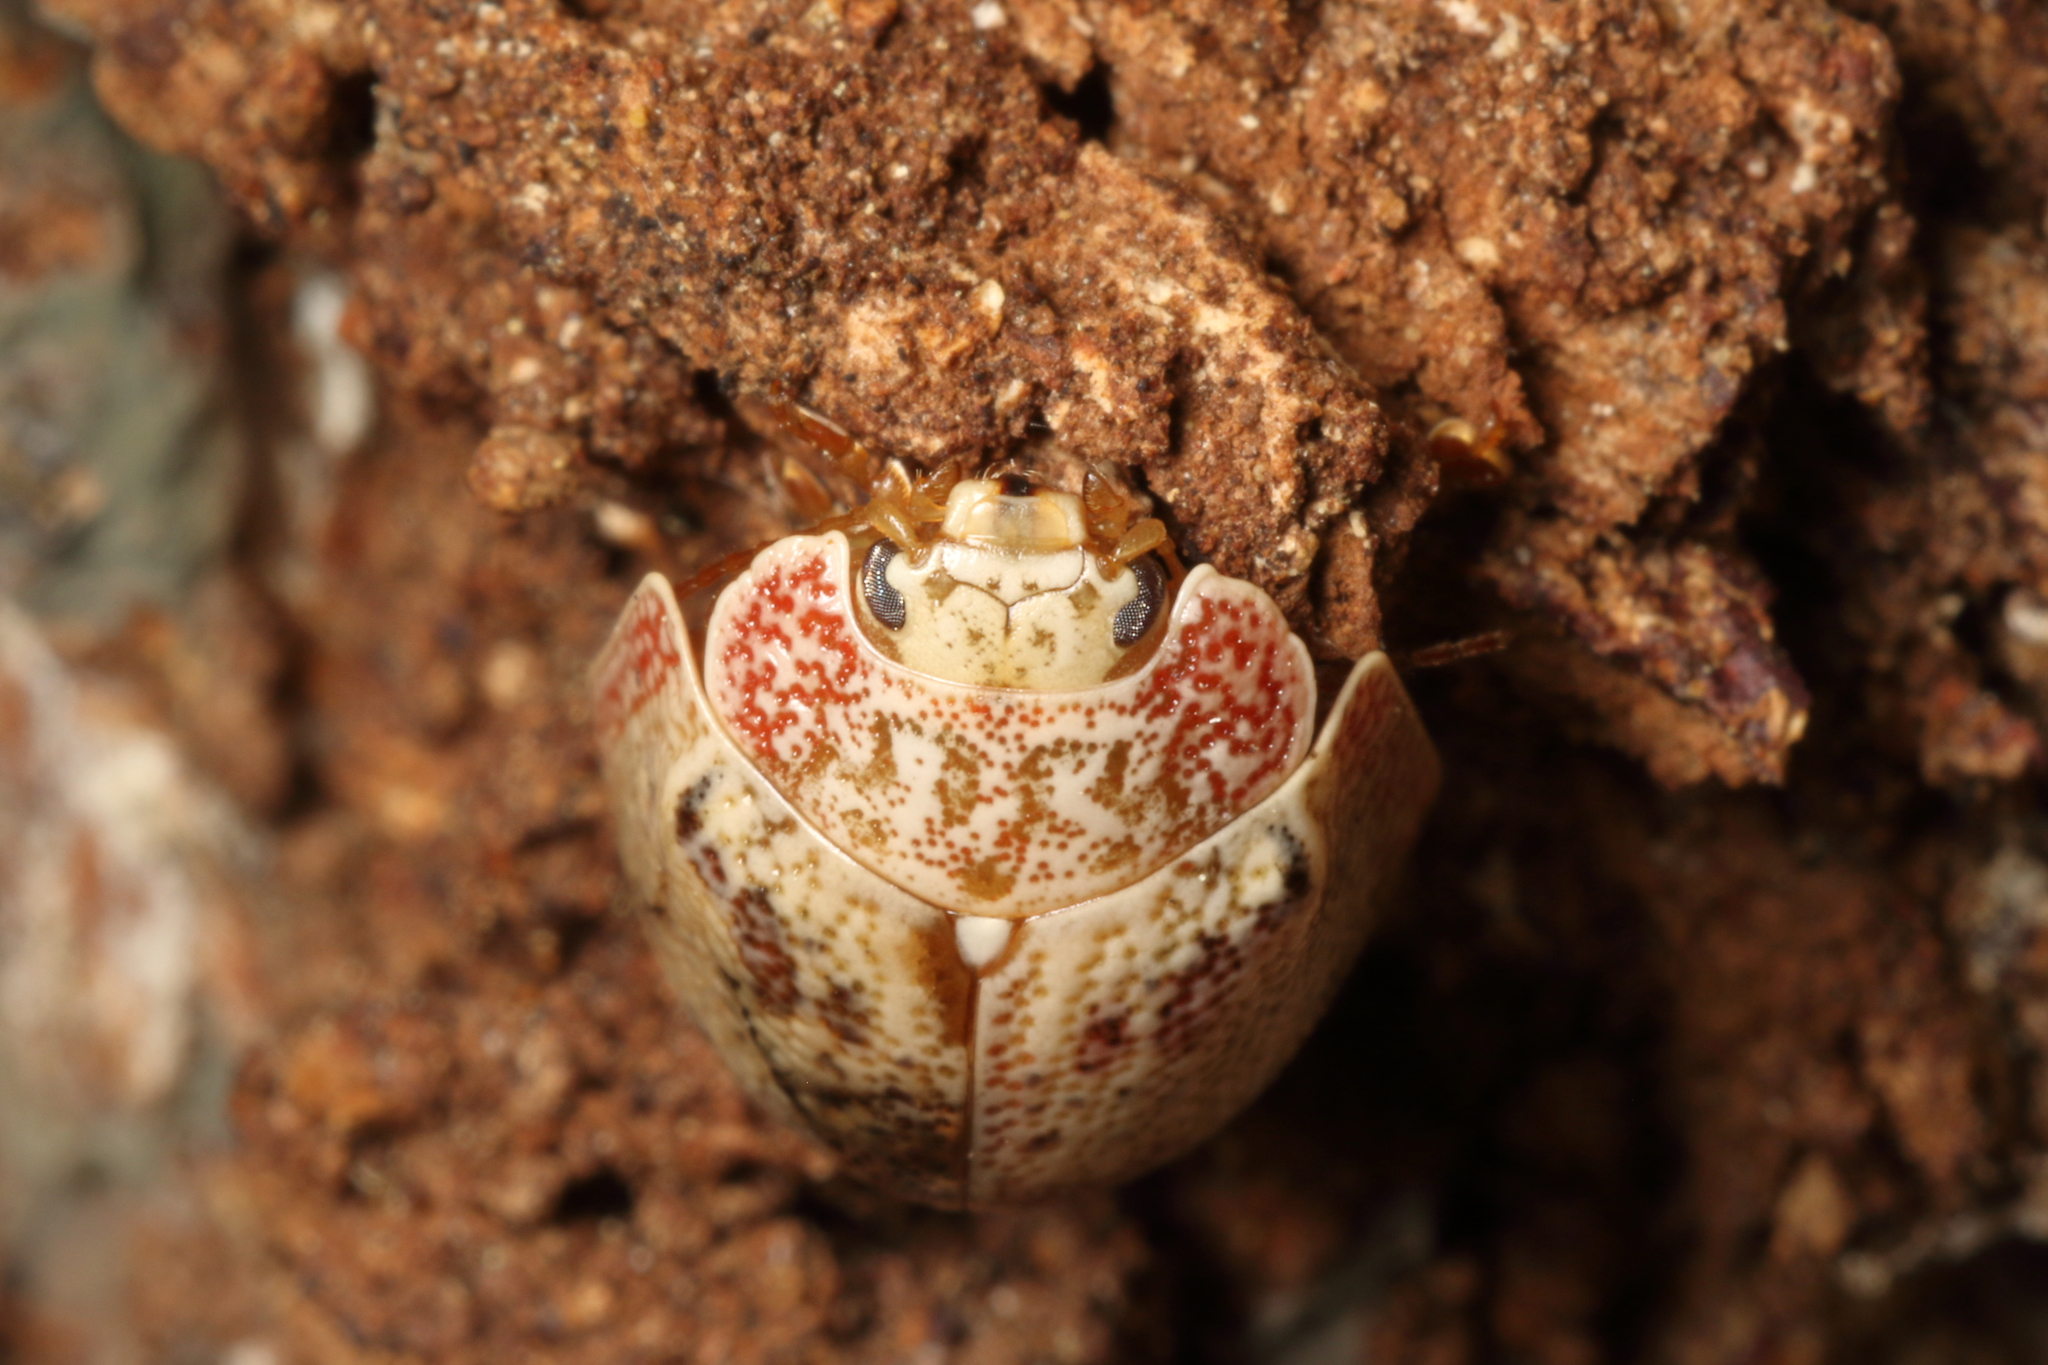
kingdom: Animalia
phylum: Arthropoda
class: Insecta
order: Coleoptera
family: Chrysomelidae
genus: Paropsis
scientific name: Paropsis charybdis
